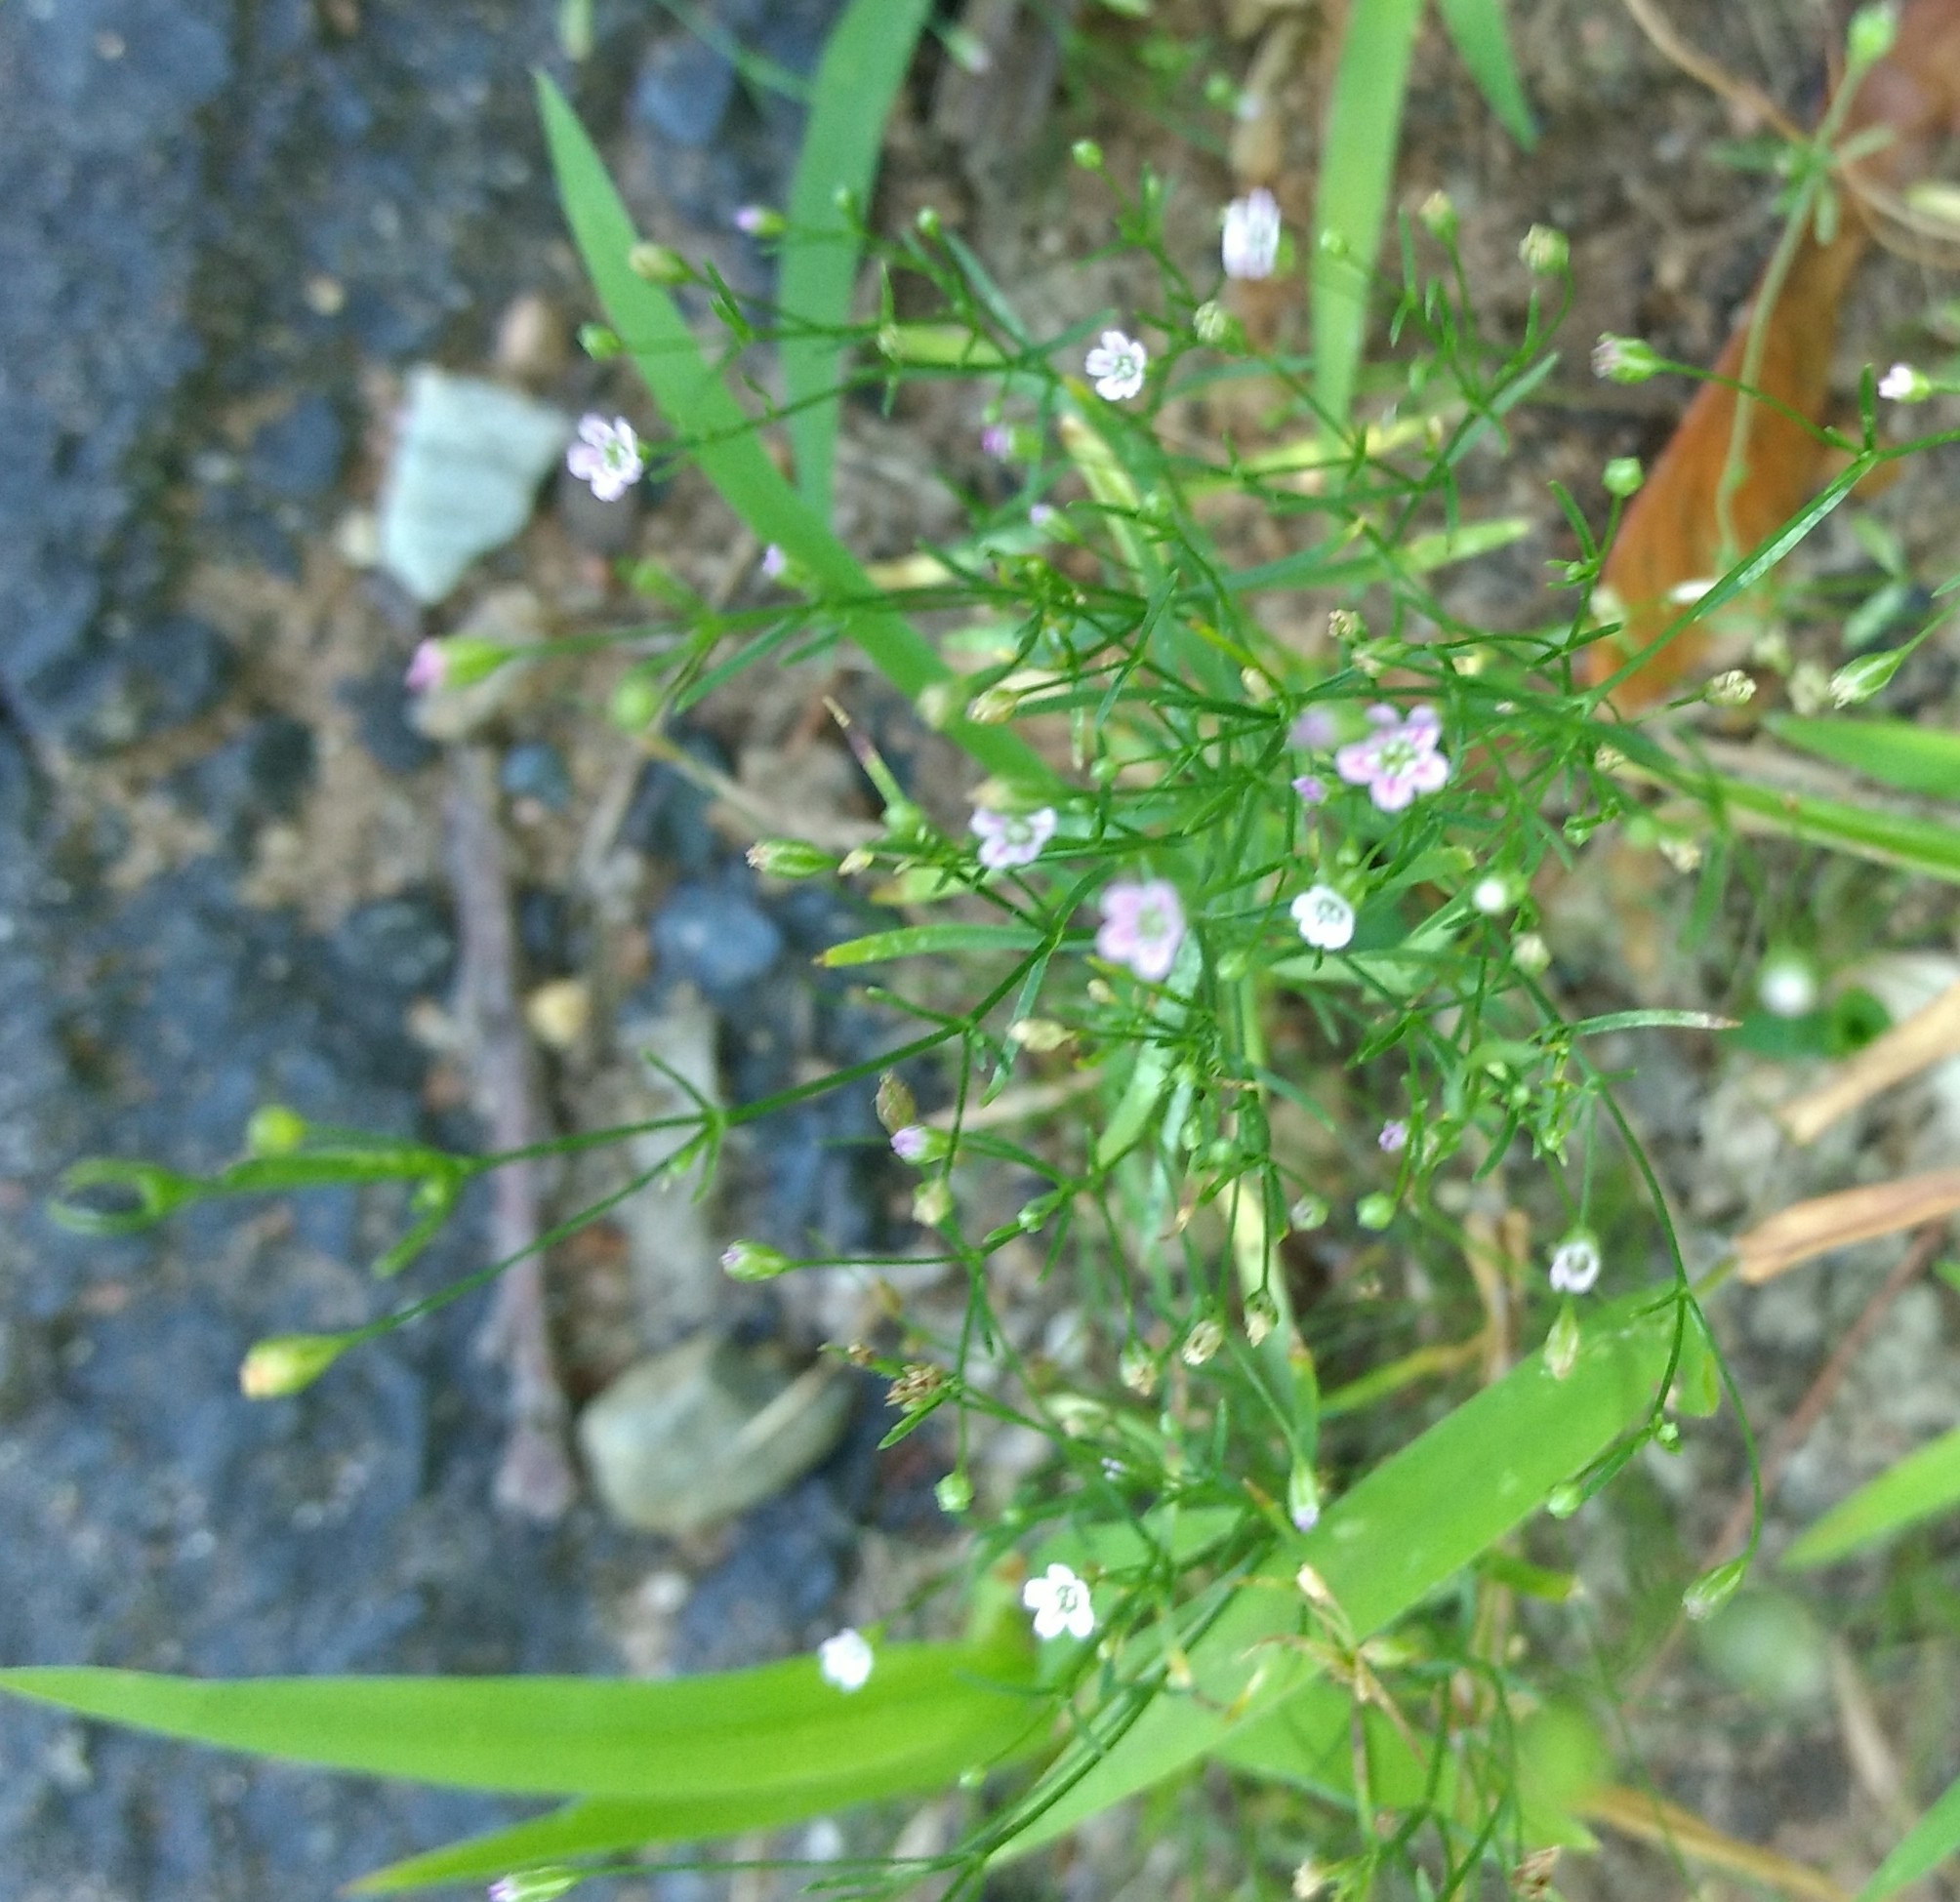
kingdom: Plantae
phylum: Tracheophyta
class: Magnoliopsida
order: Caryophyllales
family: Caryophyllaceae
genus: Psammophiliella
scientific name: Psammophiliella muralis
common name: Cushion baby's-breath
